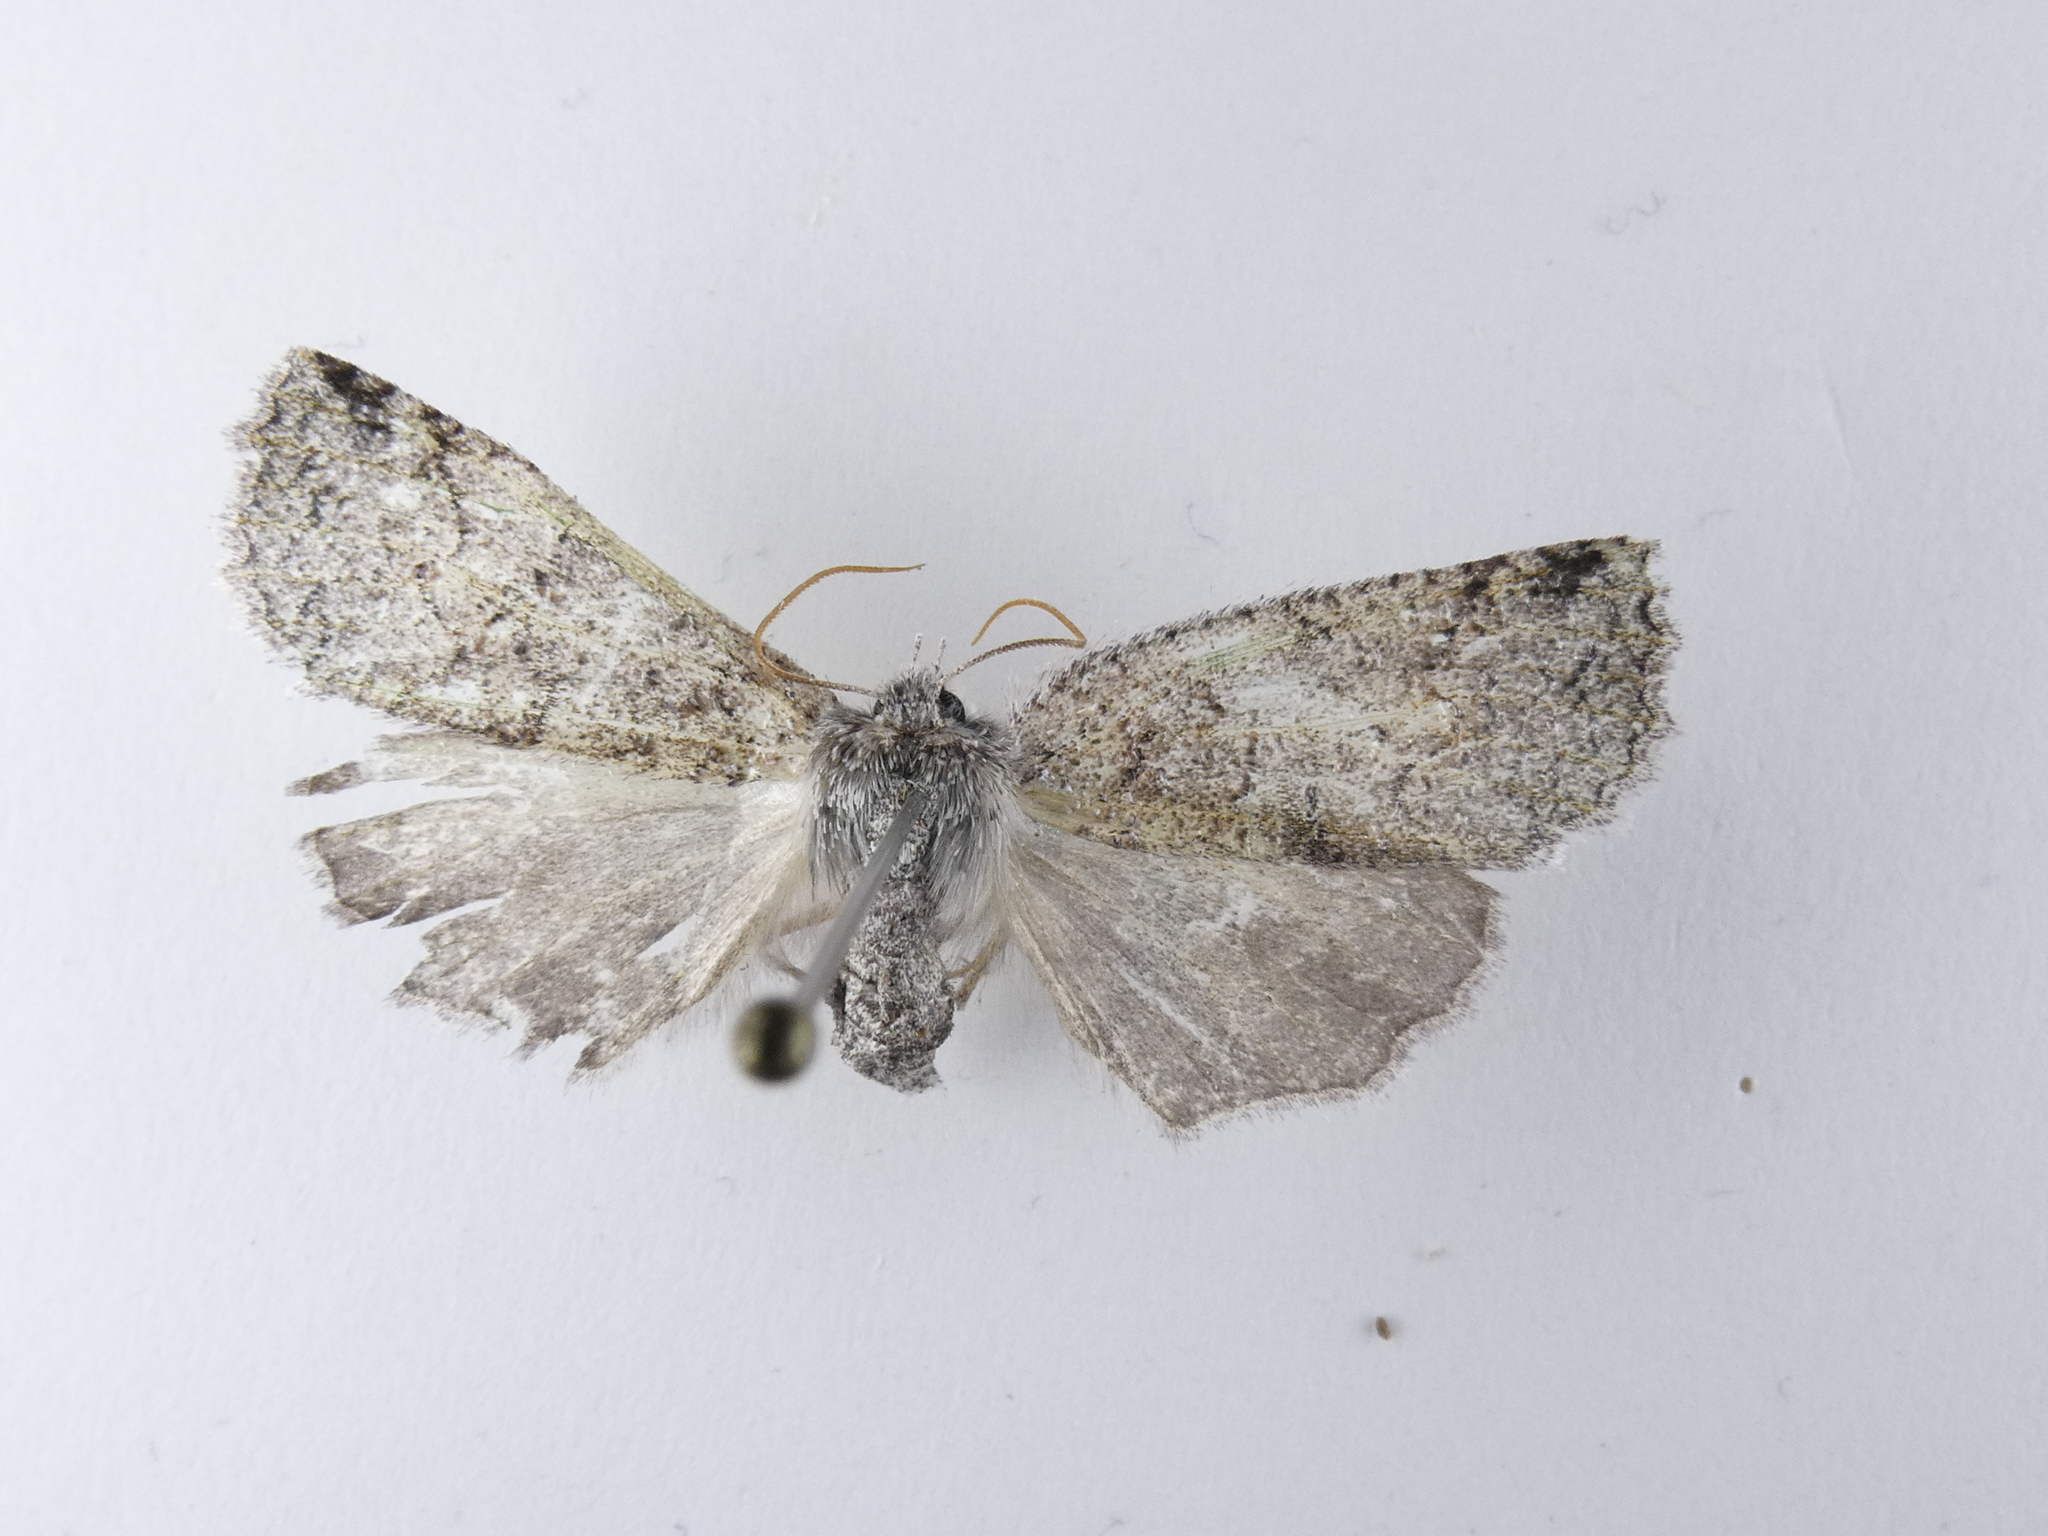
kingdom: Animalia
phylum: Arthropoda
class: Insecta
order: Lepidoptera
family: Geometridae
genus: Declana
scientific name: Declana floccosa
